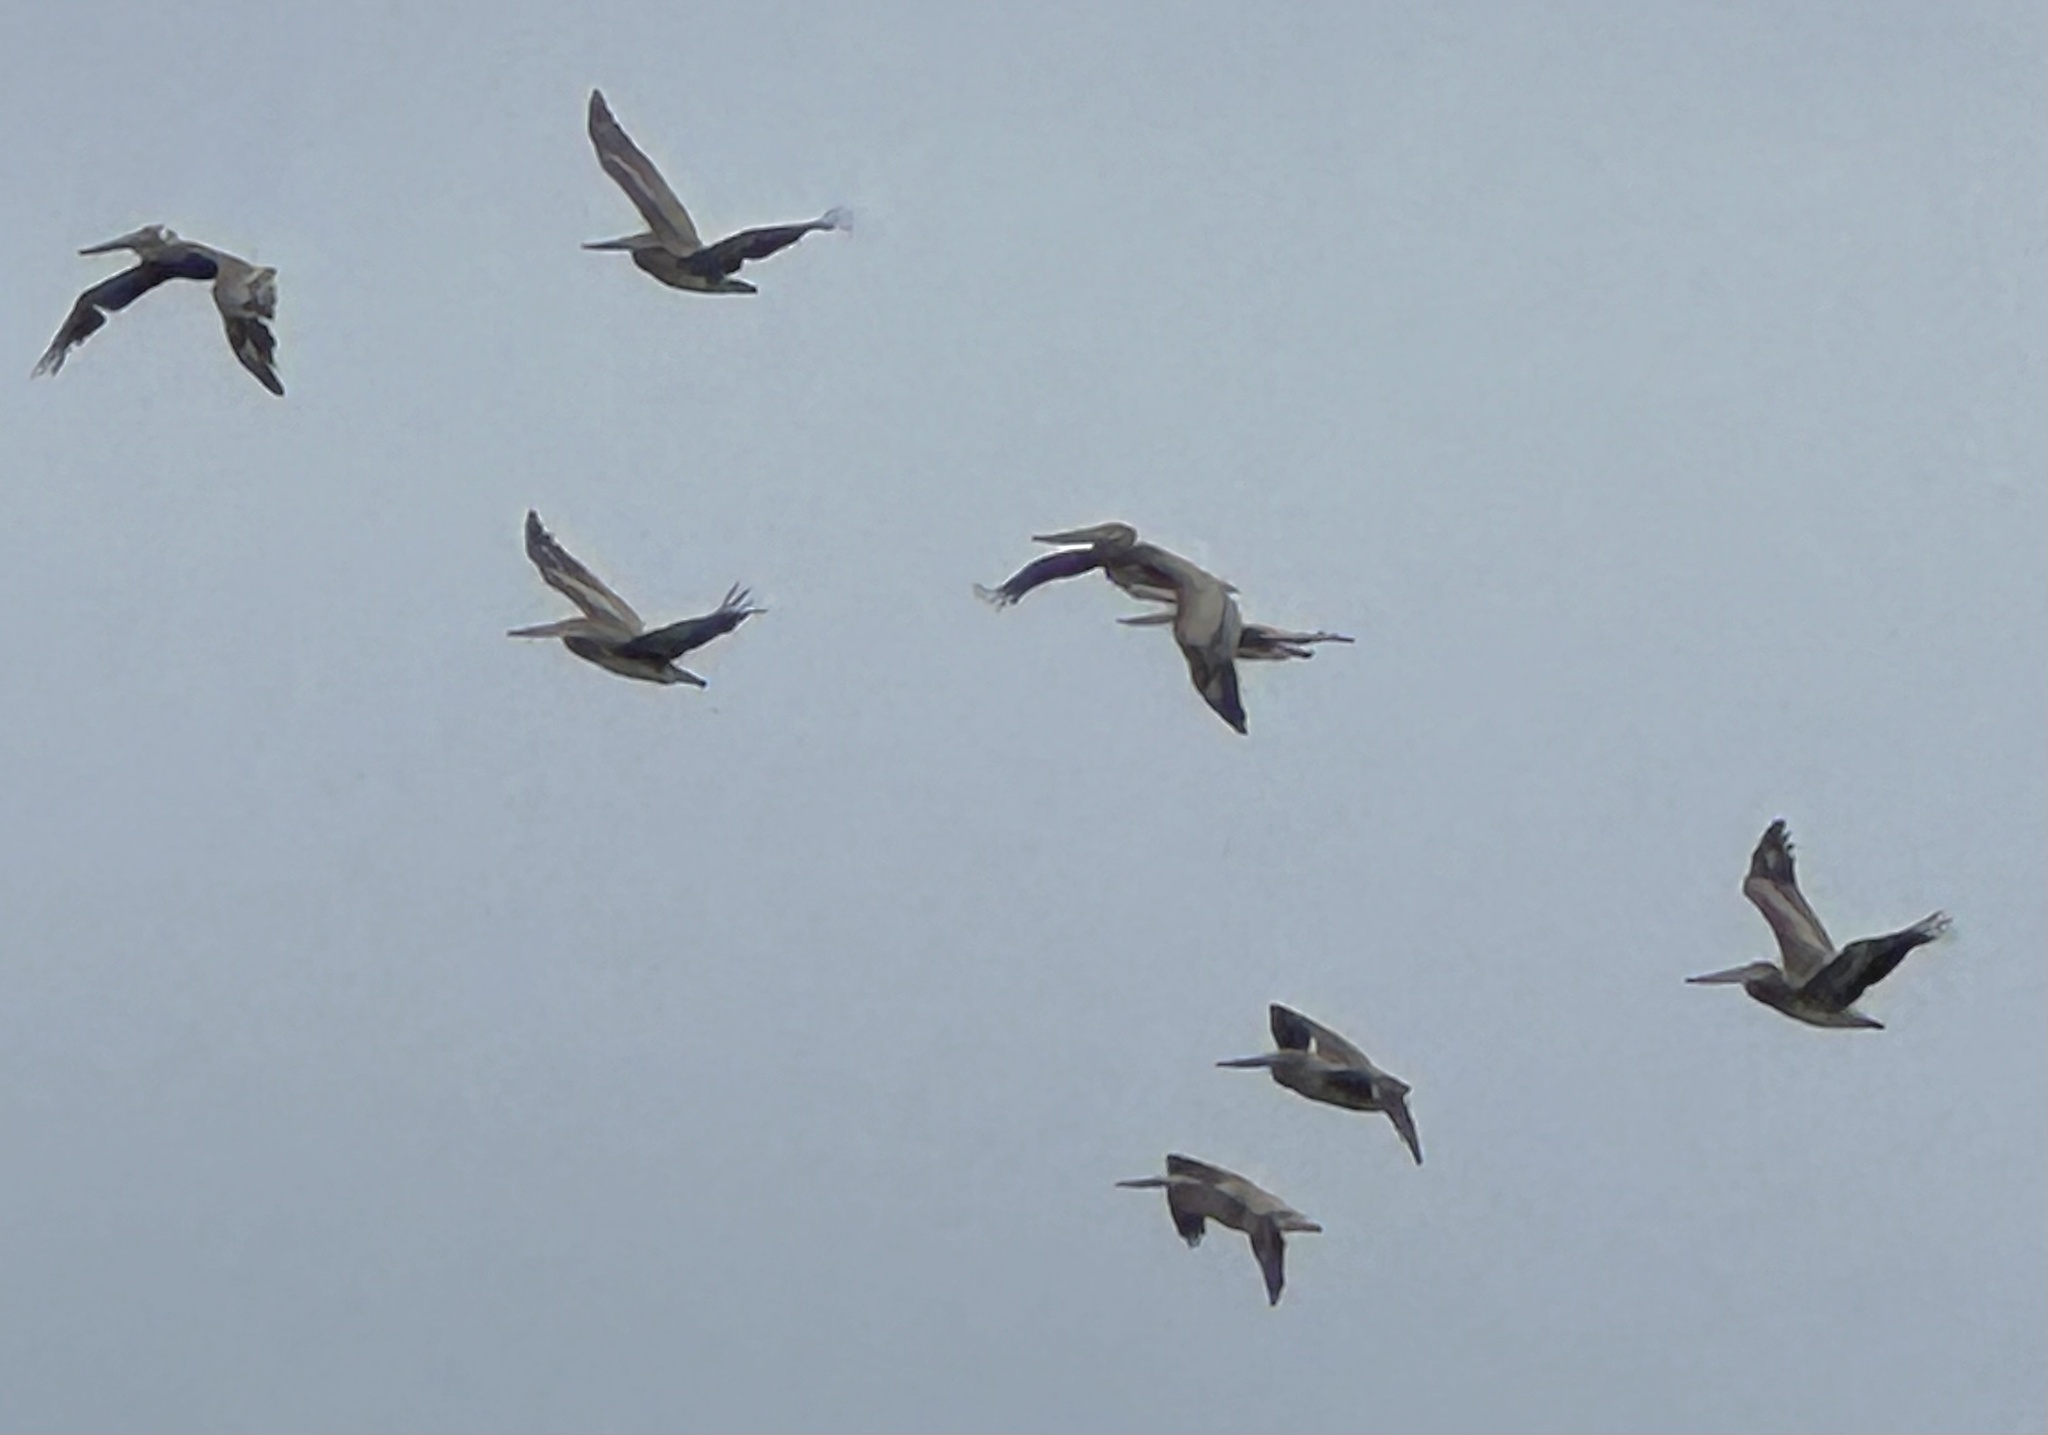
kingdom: Animalia
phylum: Chordata
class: Aves
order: Pelecaniformes
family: Pelecanidae
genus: Pelecanus
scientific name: Pelecanus occidentalis
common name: Brown pelican
